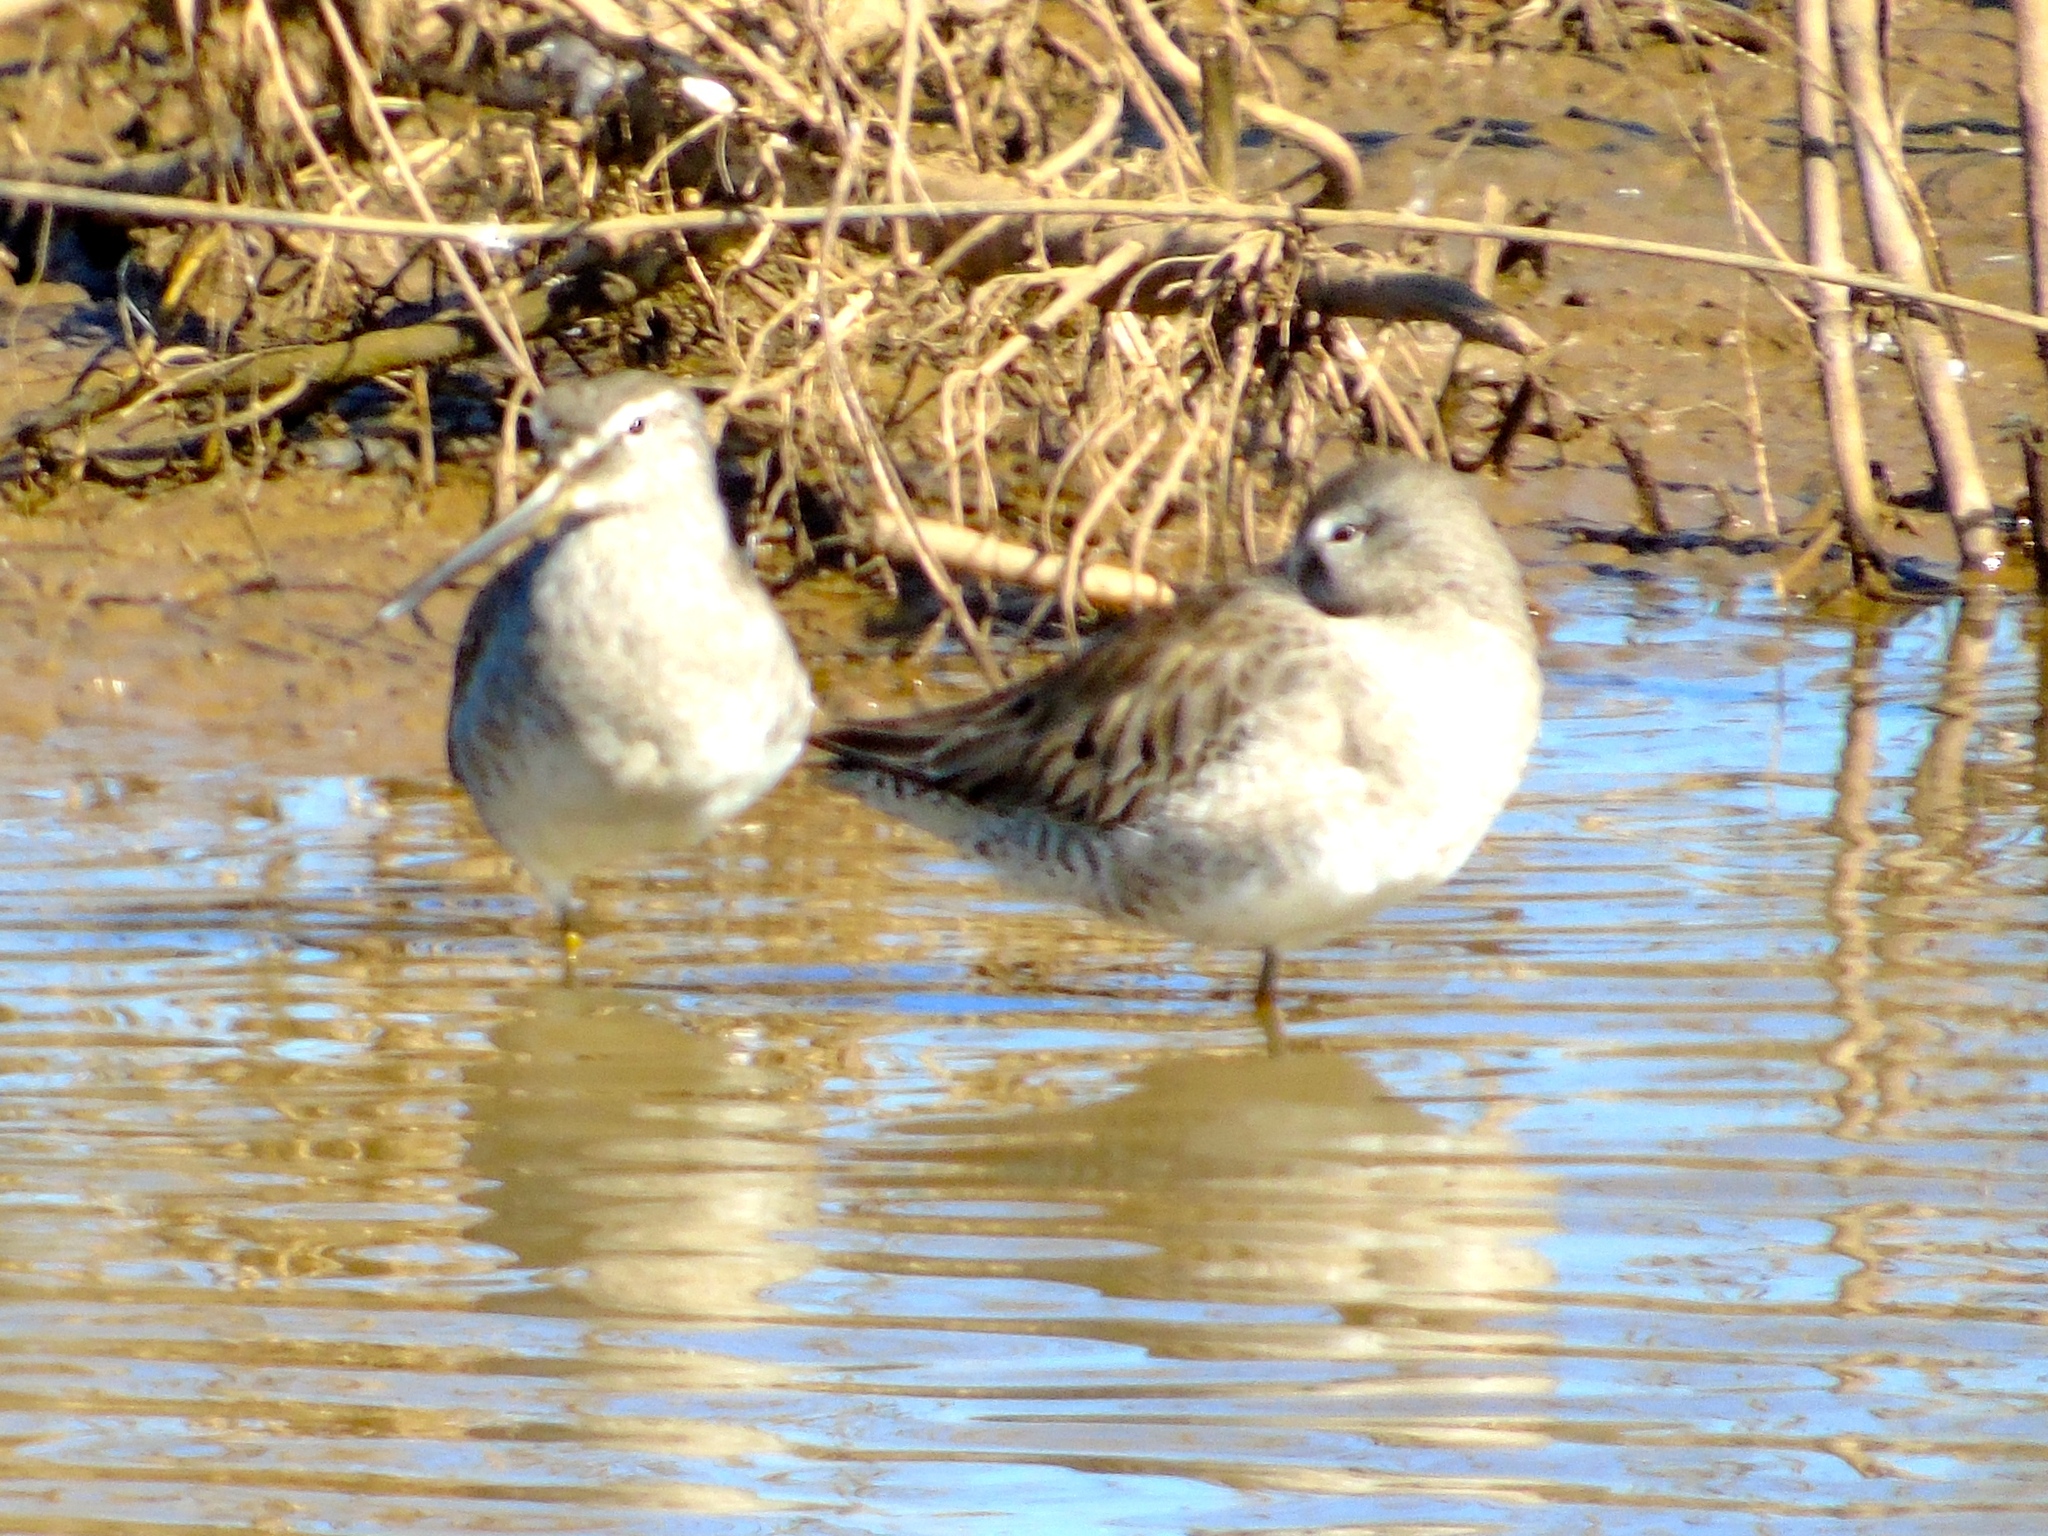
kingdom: Animalia
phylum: Chordata
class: Aves
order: Charadriiformes
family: Scolopacidae
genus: Limnodromus
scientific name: Limnodromus
